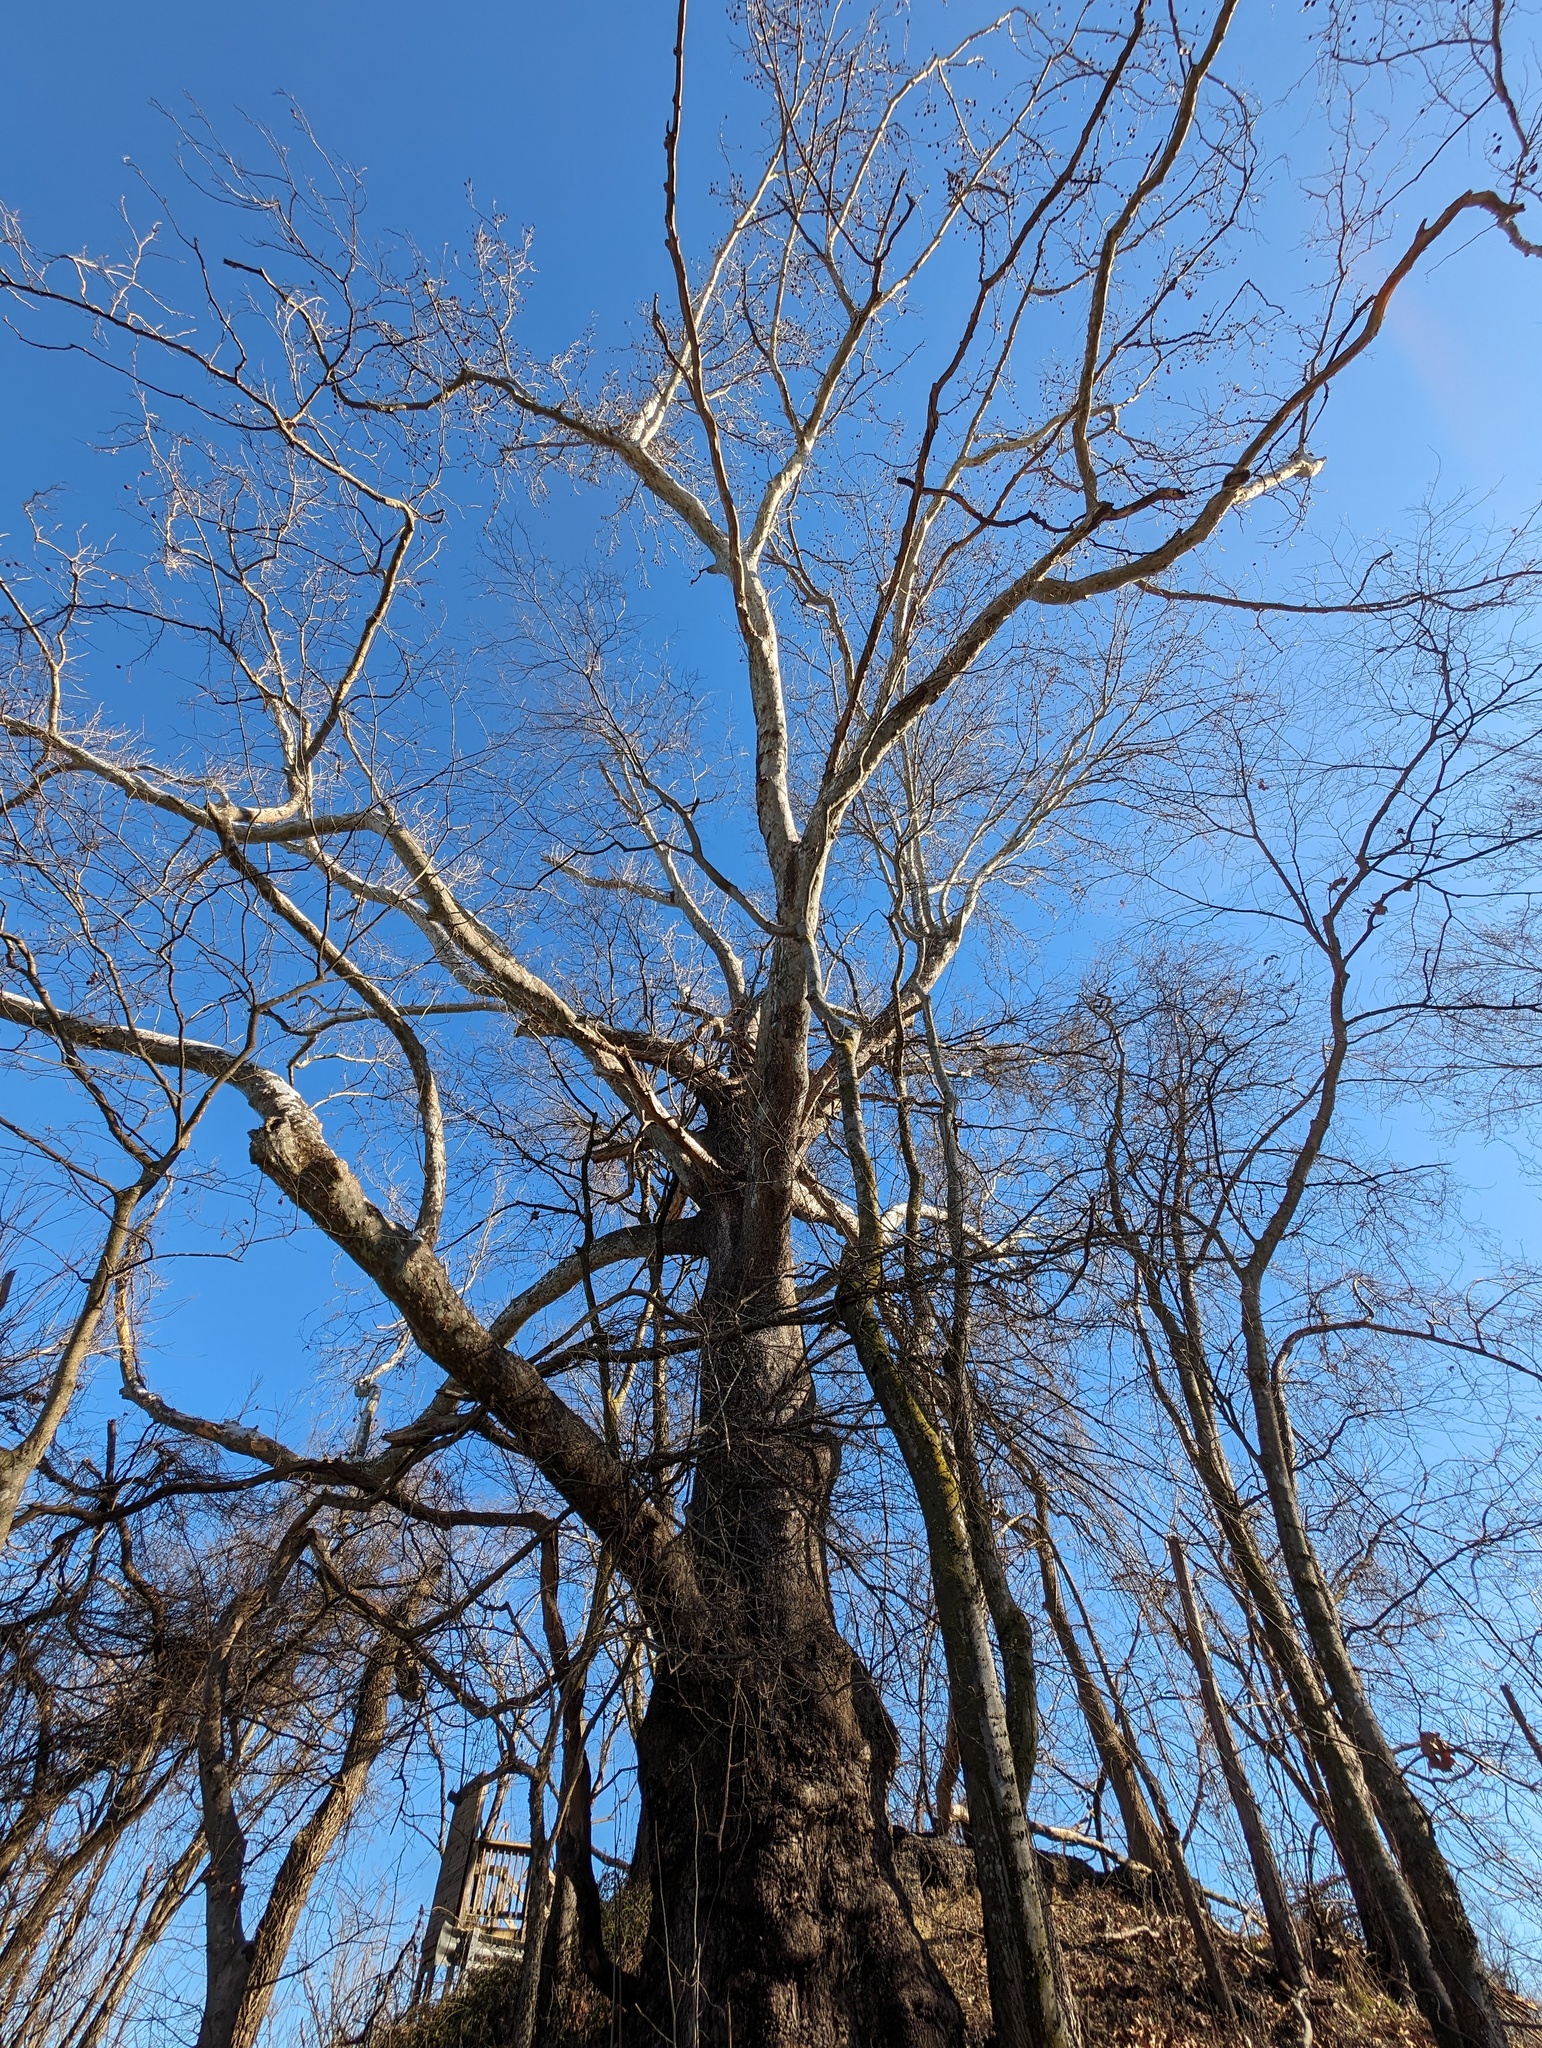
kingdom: Plantae
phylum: Tracheophyta
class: Magnoliopsida
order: Proteales
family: Platanaceae
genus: Platanus
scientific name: Platanus occidentalis
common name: American sycamore
